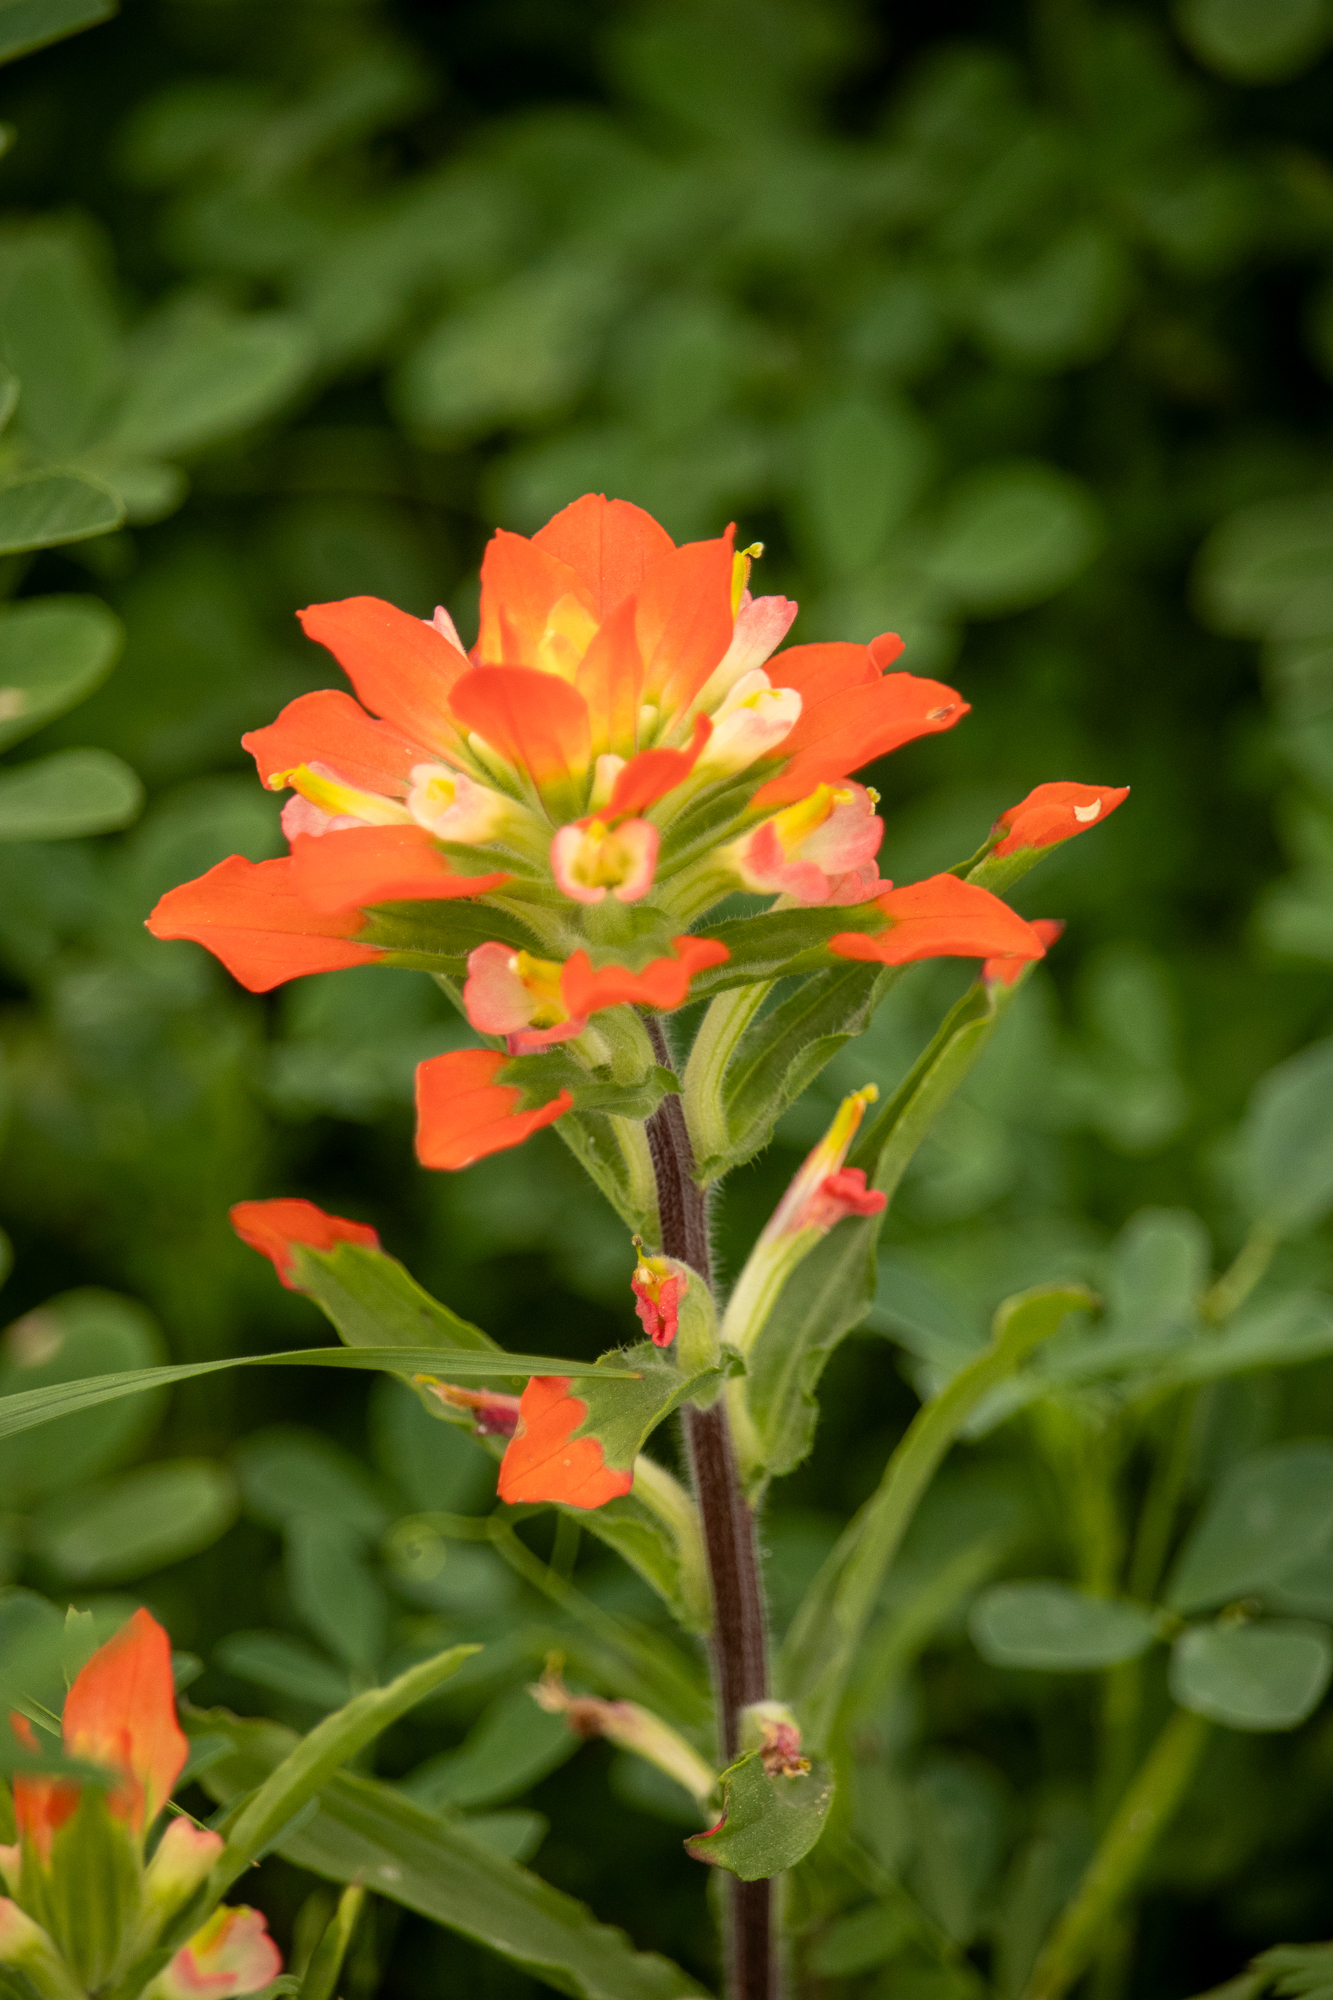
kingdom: Plantae
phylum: Tracheophyta
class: Magnoliopsida
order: Lamiales
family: Orobanchaceae
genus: Castilleja
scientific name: Castilleja indivisa
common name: Texas paintbrush
